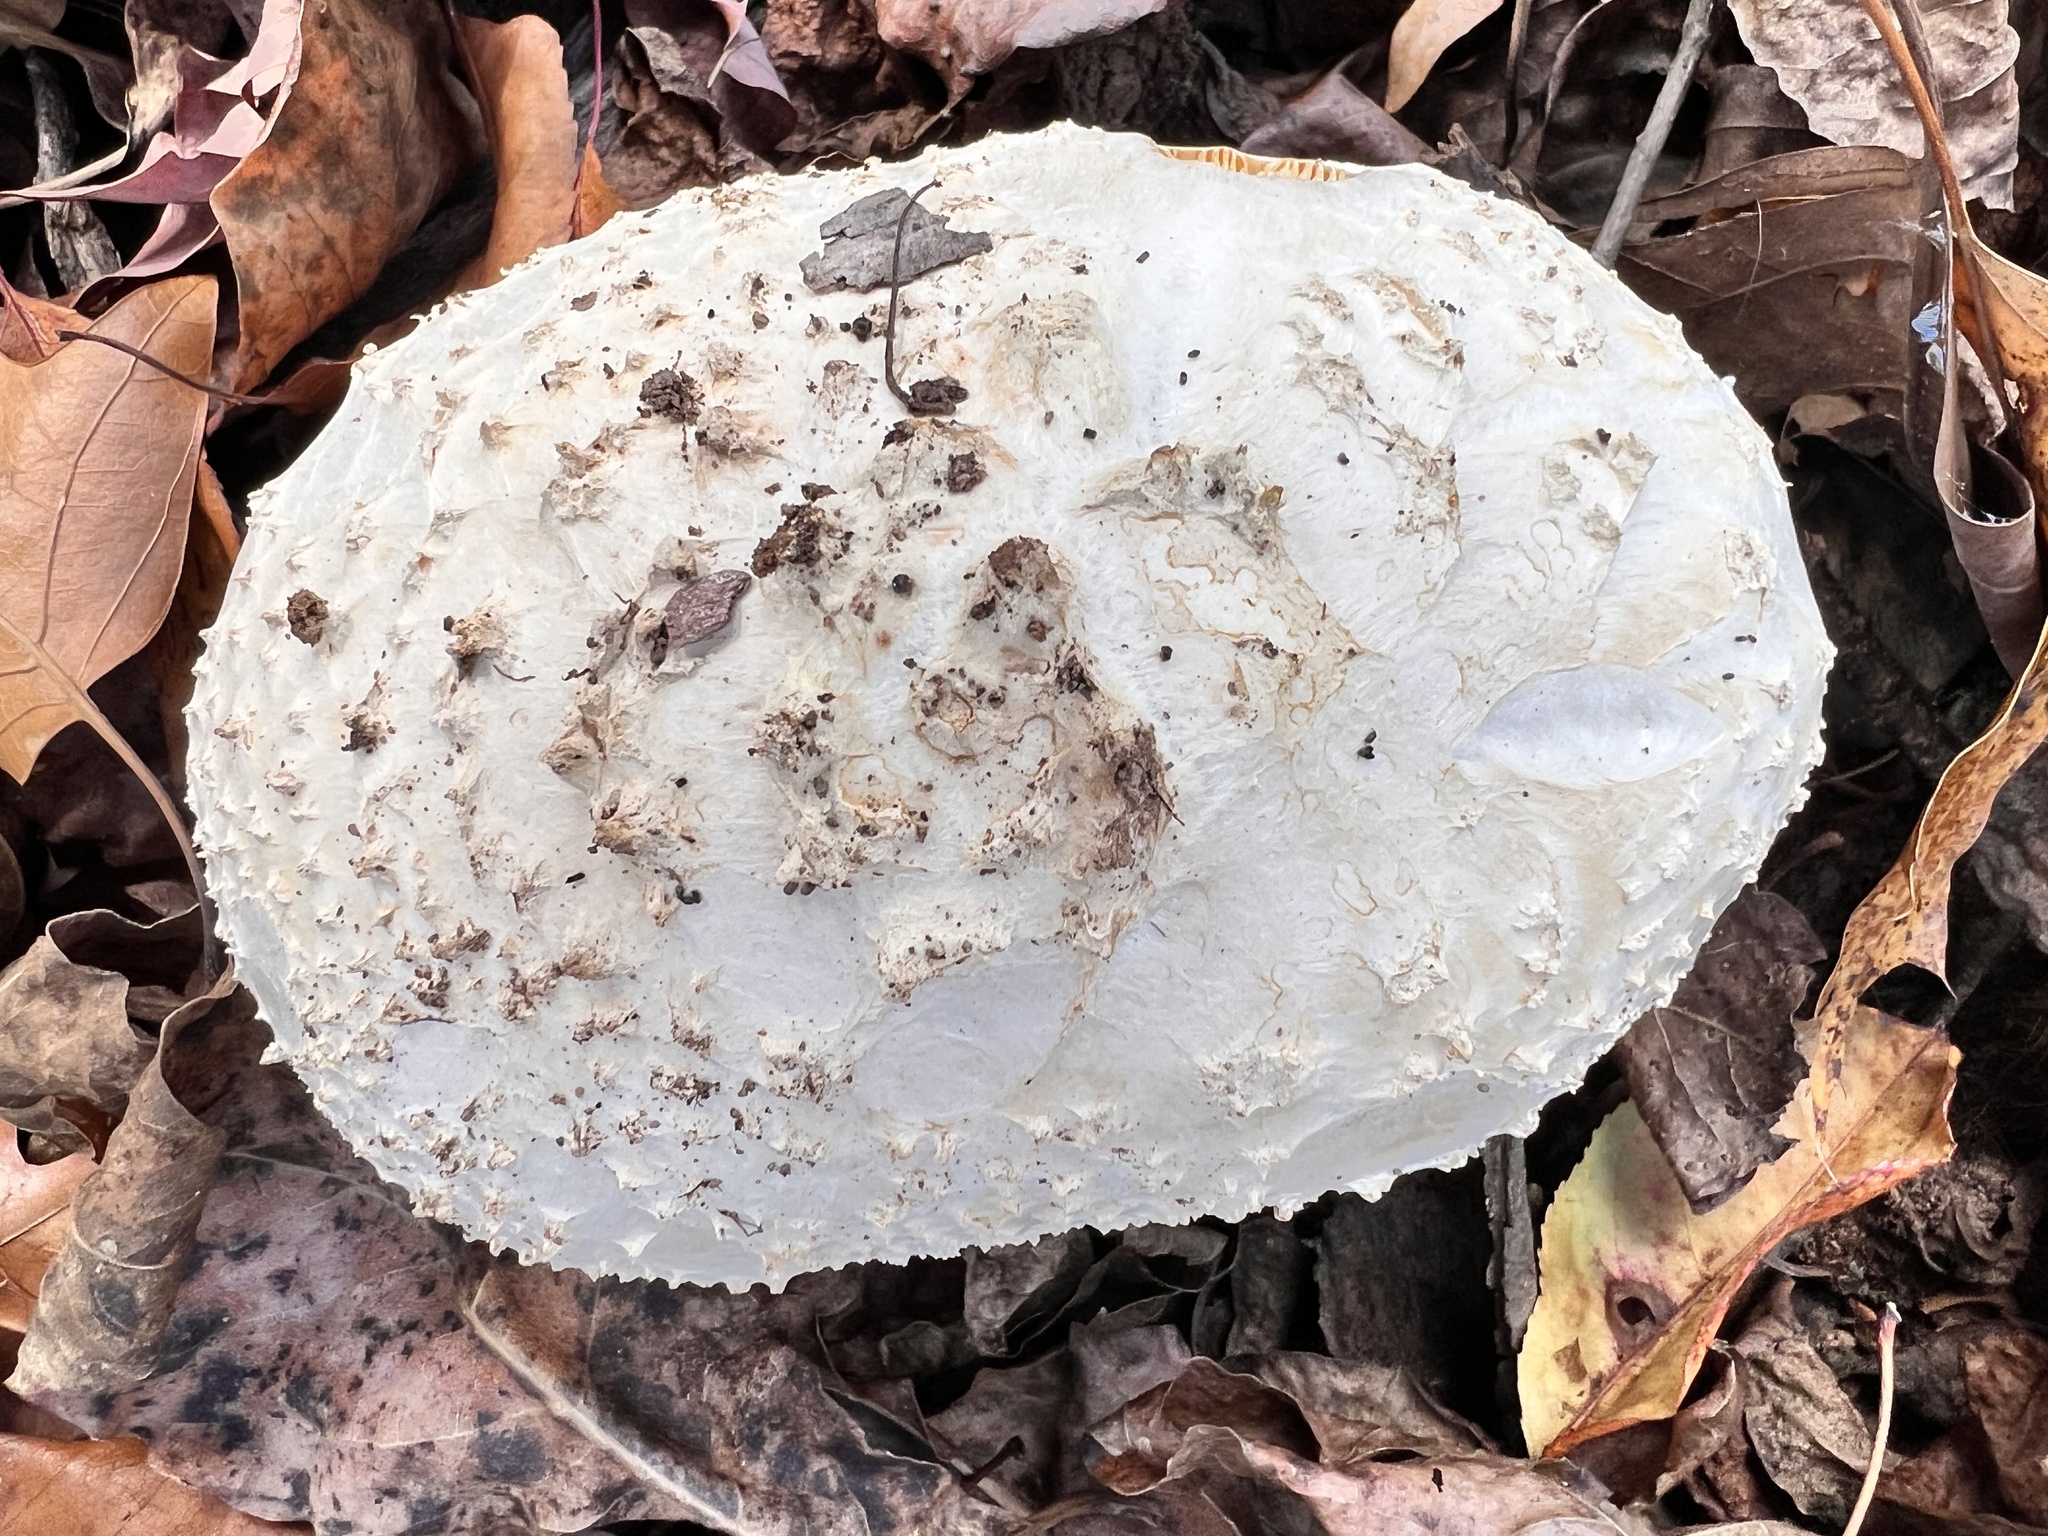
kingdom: Fungi
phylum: Basidiomycota
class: Agaricomycetes
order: Agaricales
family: Amanitaceae
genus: Amanita
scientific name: Amanita rhopalopus
